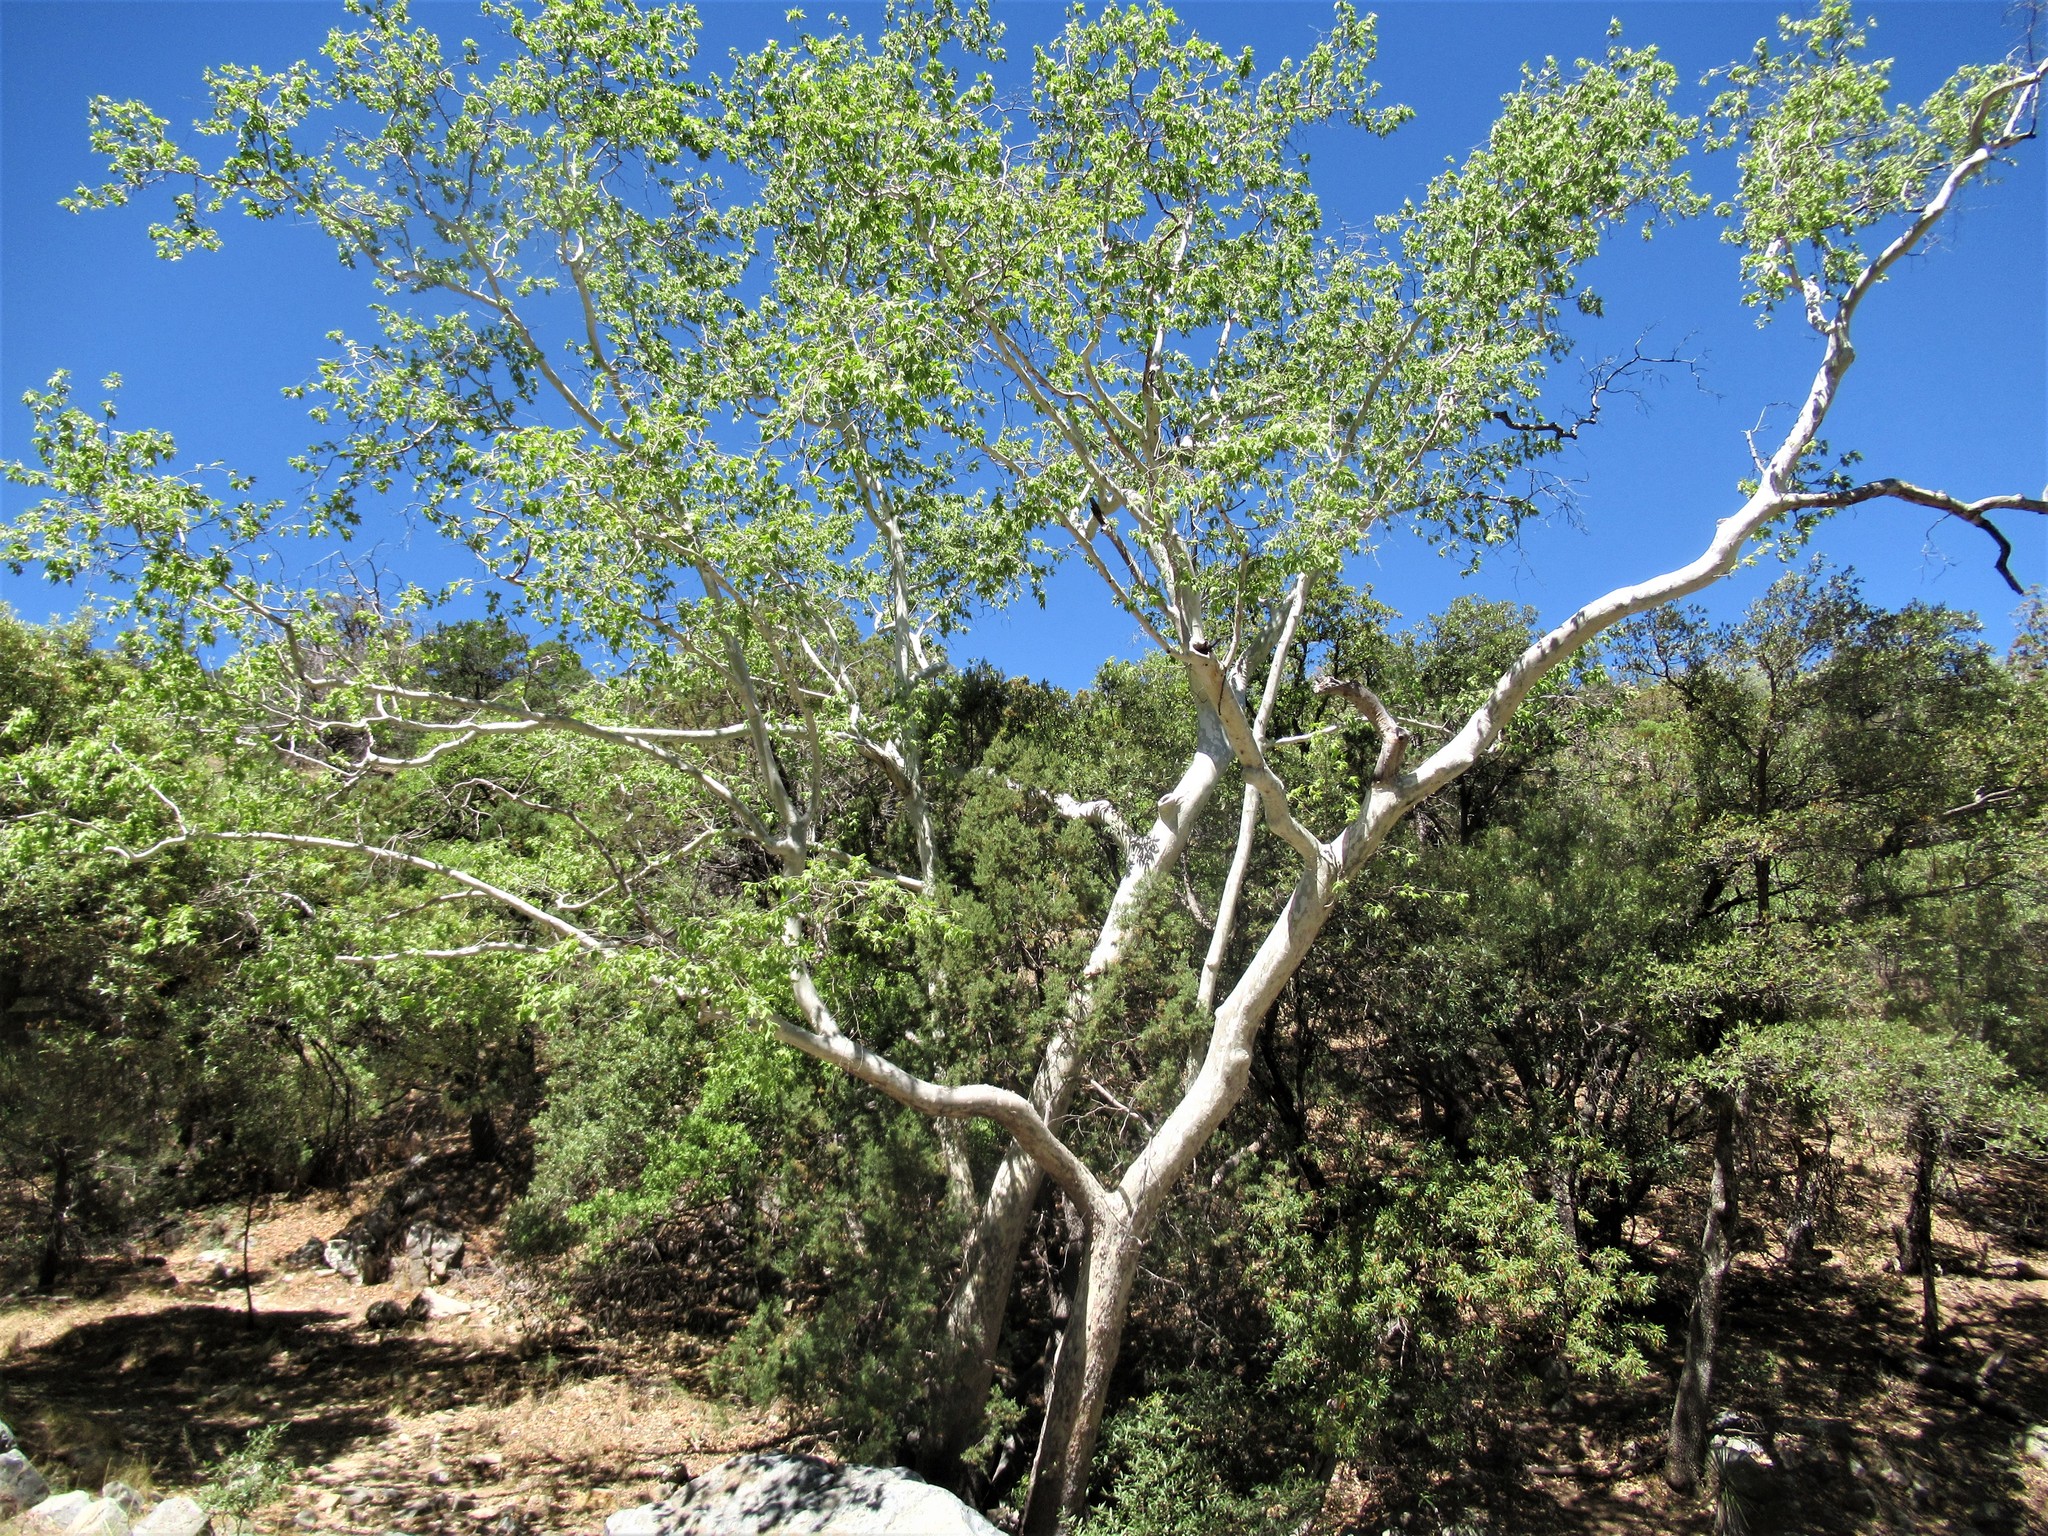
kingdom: Plantae
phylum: Tracheophyta
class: Magnoliopsida
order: Proteales
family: Platanaceae
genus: Platanus
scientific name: Platanus wrightii
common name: Arizona sycamore
